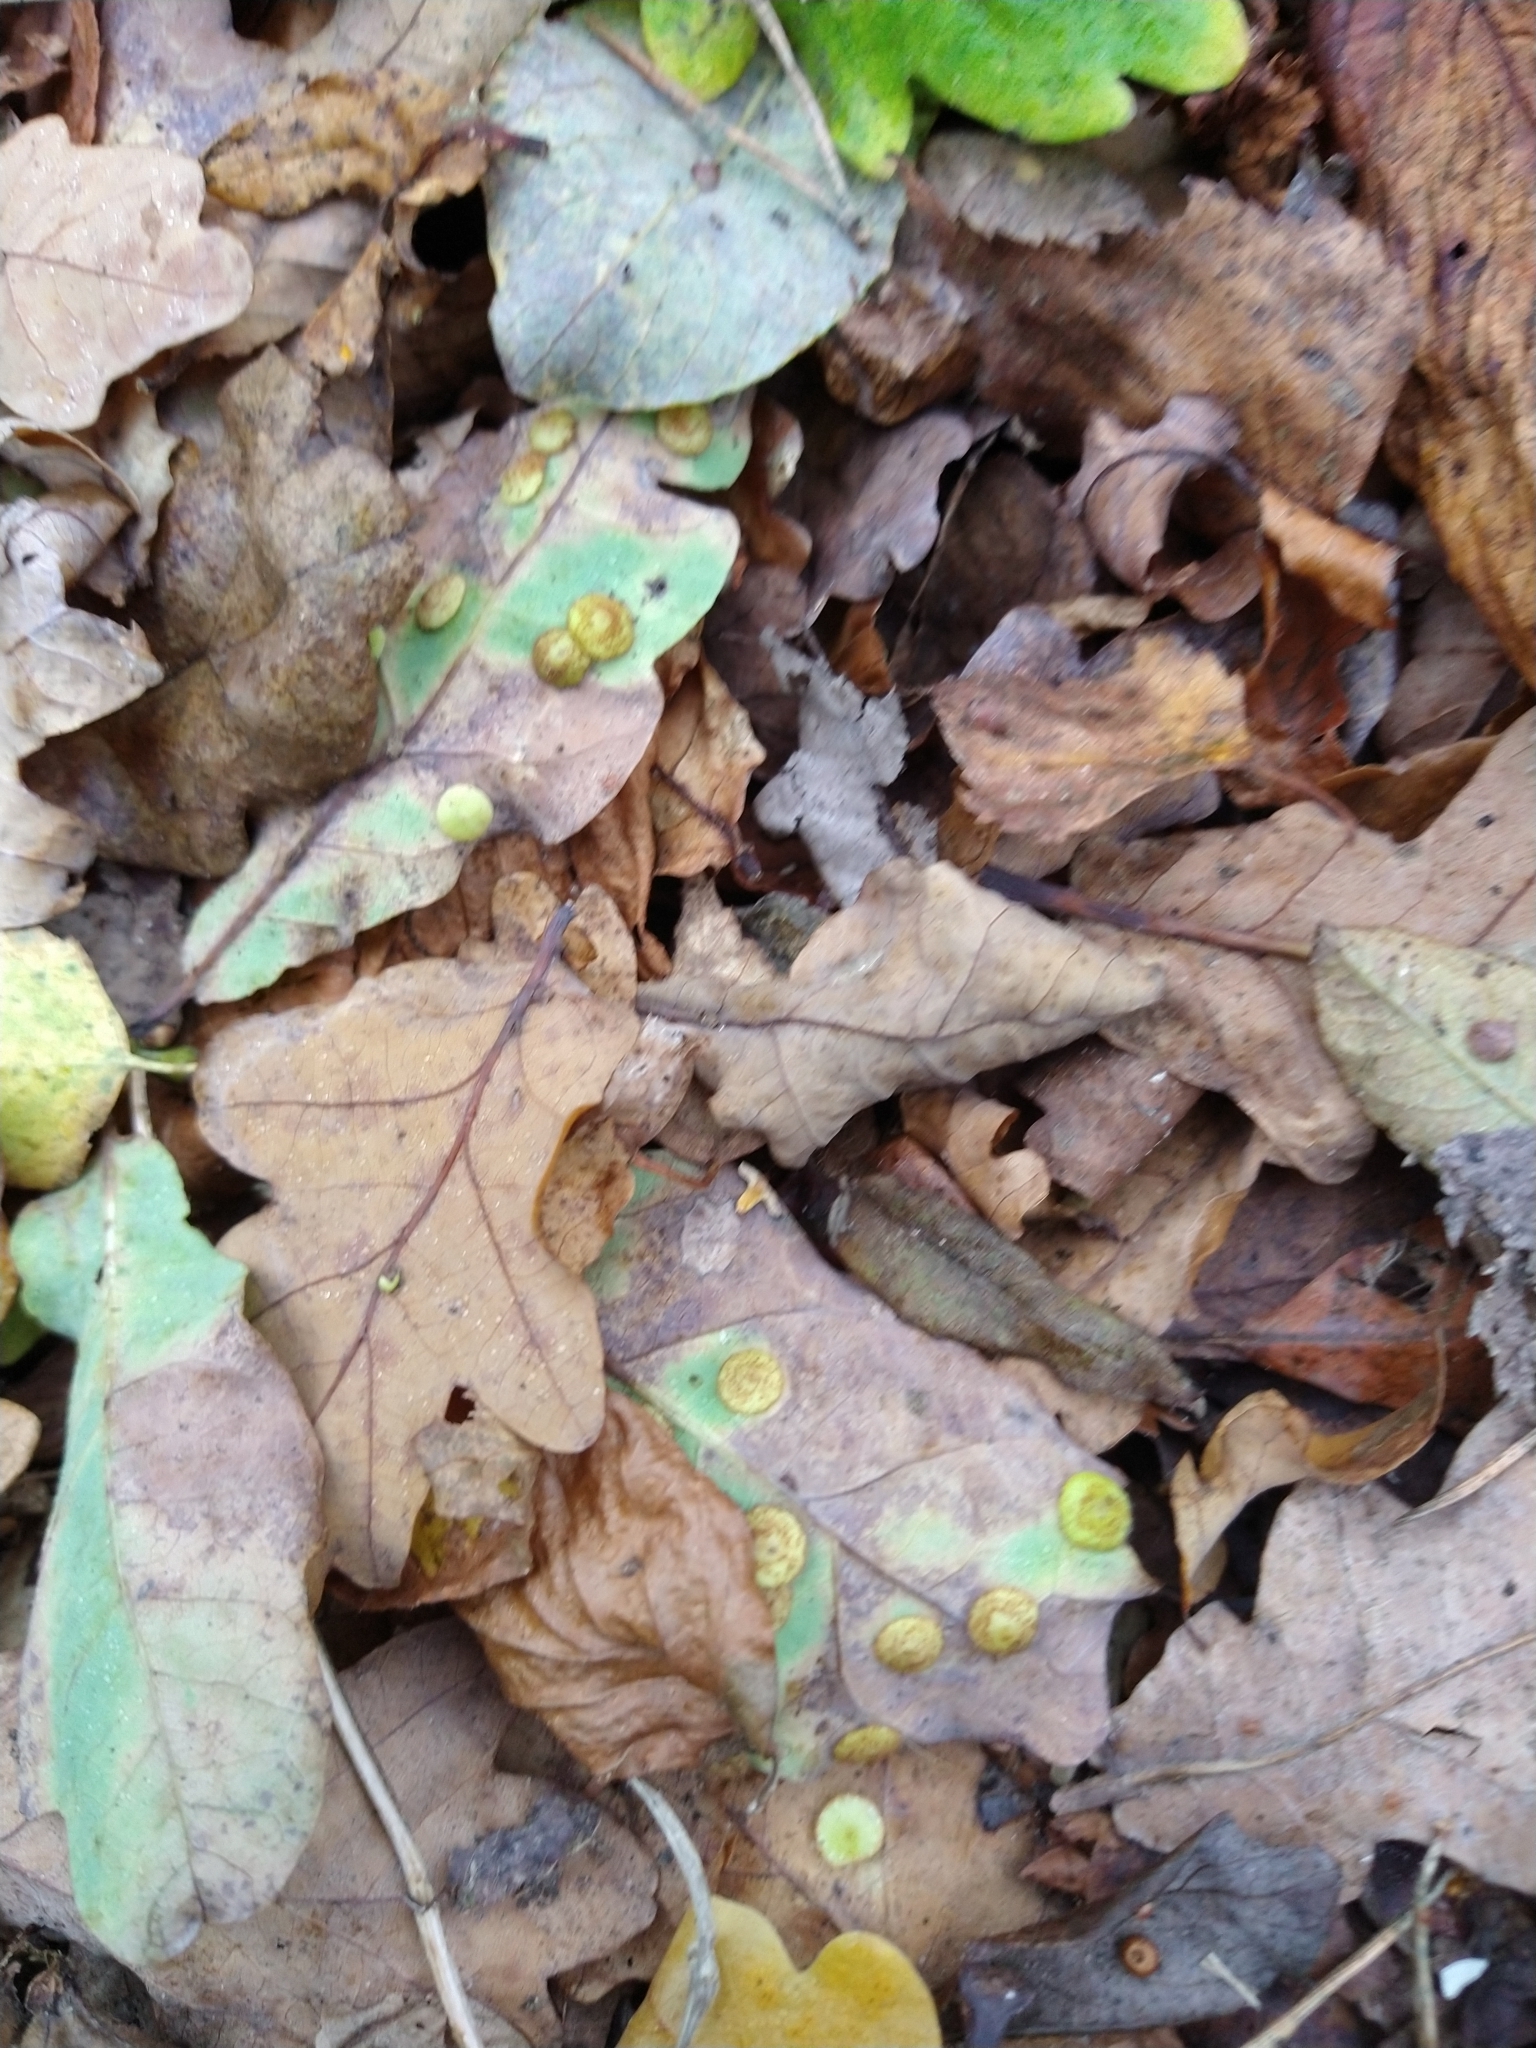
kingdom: Animalia
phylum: Arthropoda
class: Insecta
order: Hymenoptera
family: Cynipidae
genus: Neuroterus
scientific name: Neuroterus quercusbaccarum
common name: Common spangle gall
